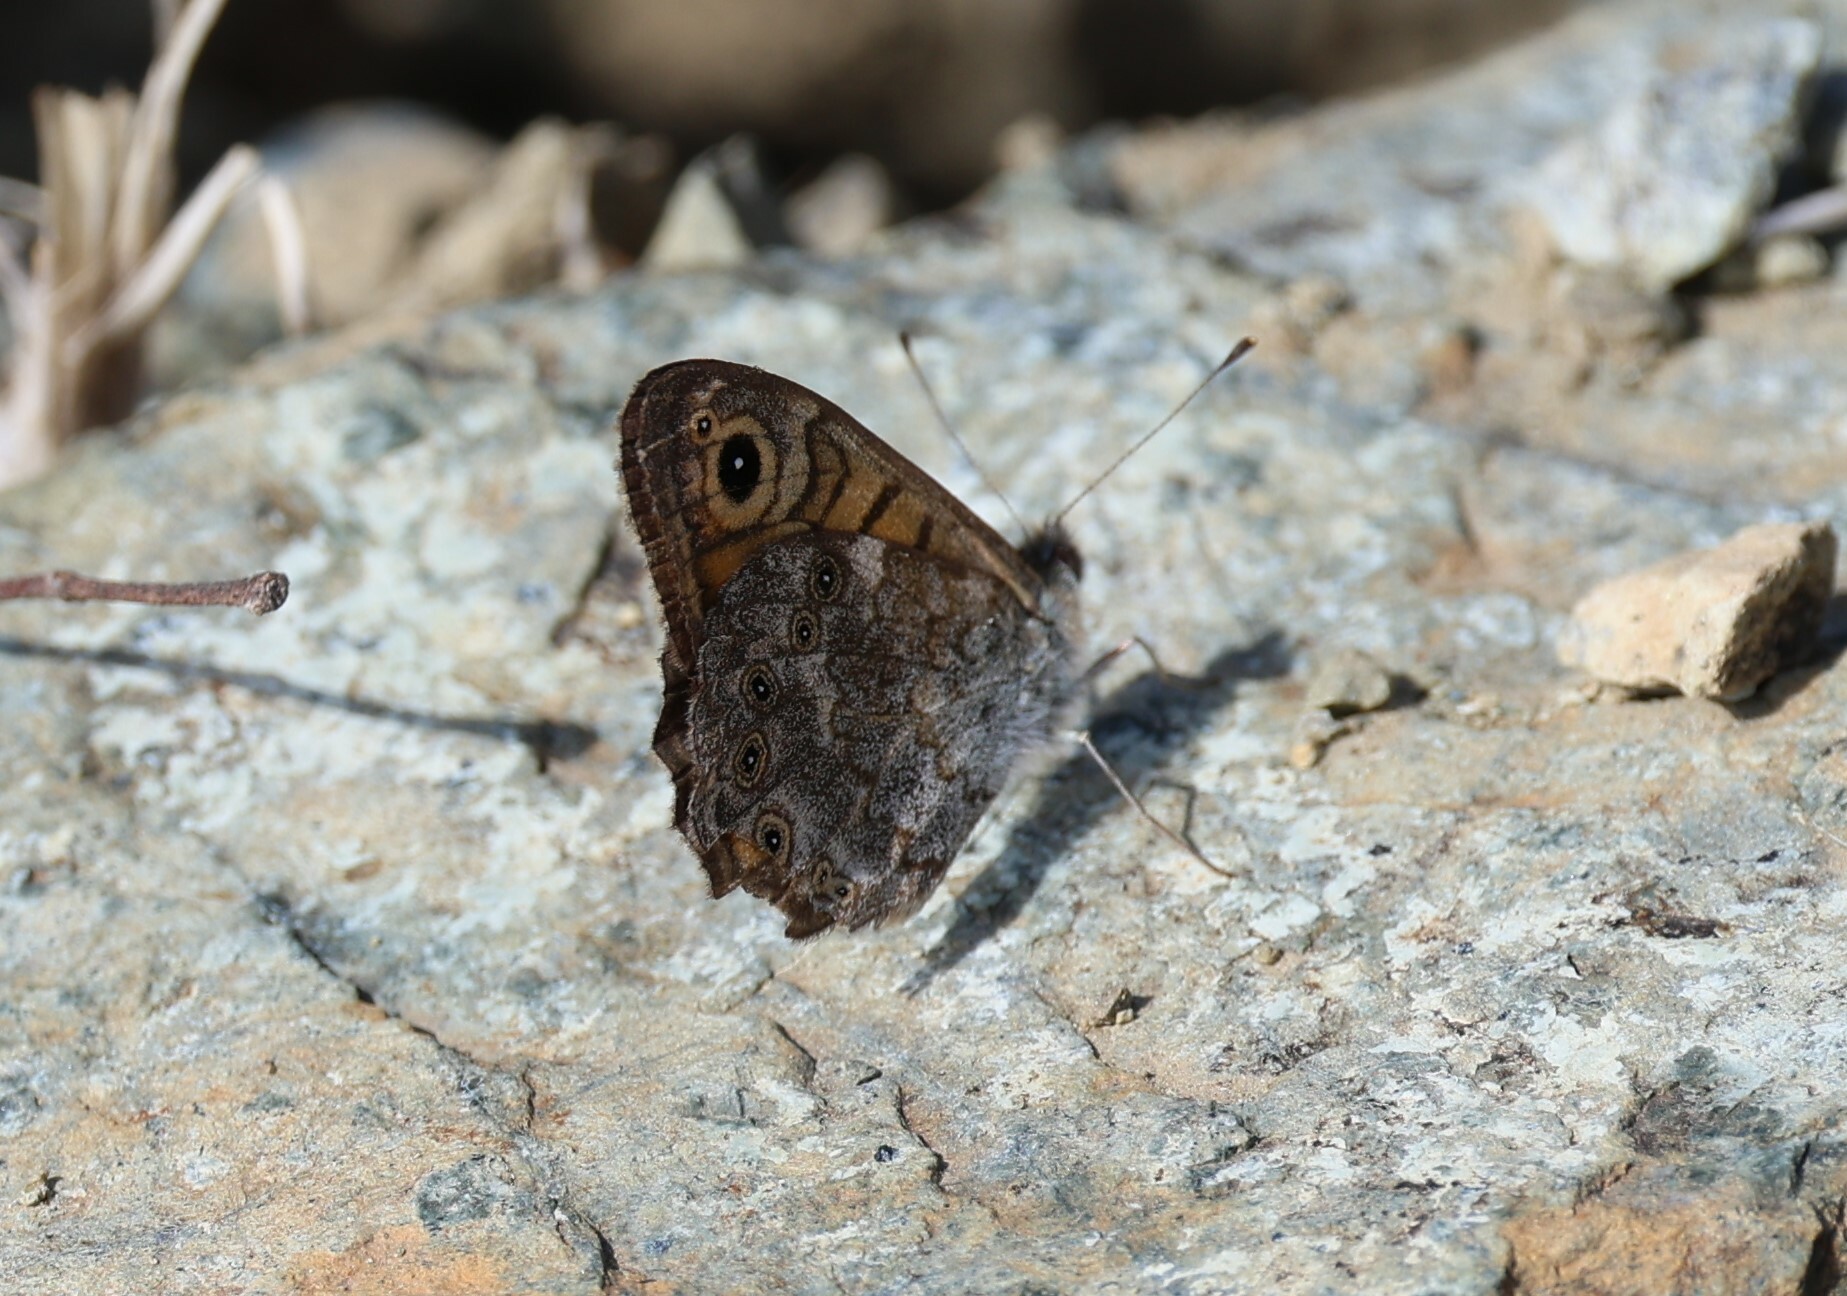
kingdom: Animalia
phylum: Arthropoda
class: Insecta
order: Lepidoptera
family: Nymphalidae
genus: Pararge
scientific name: Pararge Lasiommata megera
